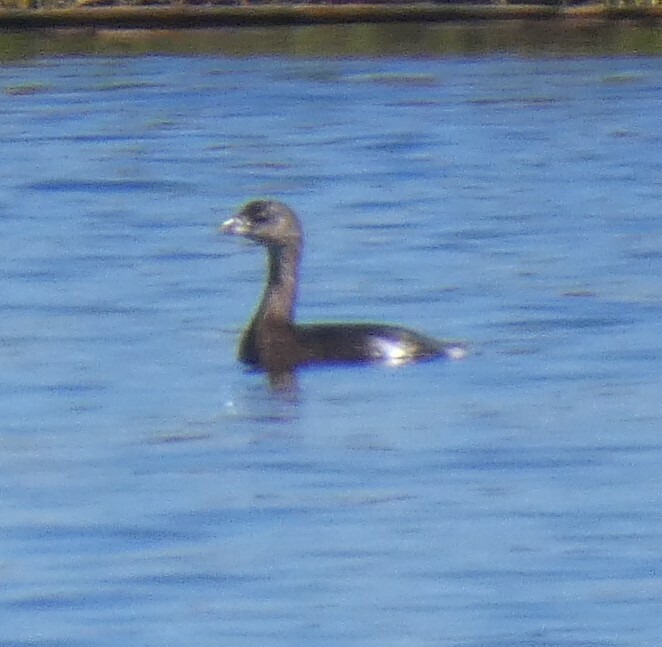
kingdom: Animalia
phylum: Chordata
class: Aves
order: Podicipediformes
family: Podicipedidae
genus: Podilymbus
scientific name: Podilymbus podiceps
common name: Pied-billed grebe
